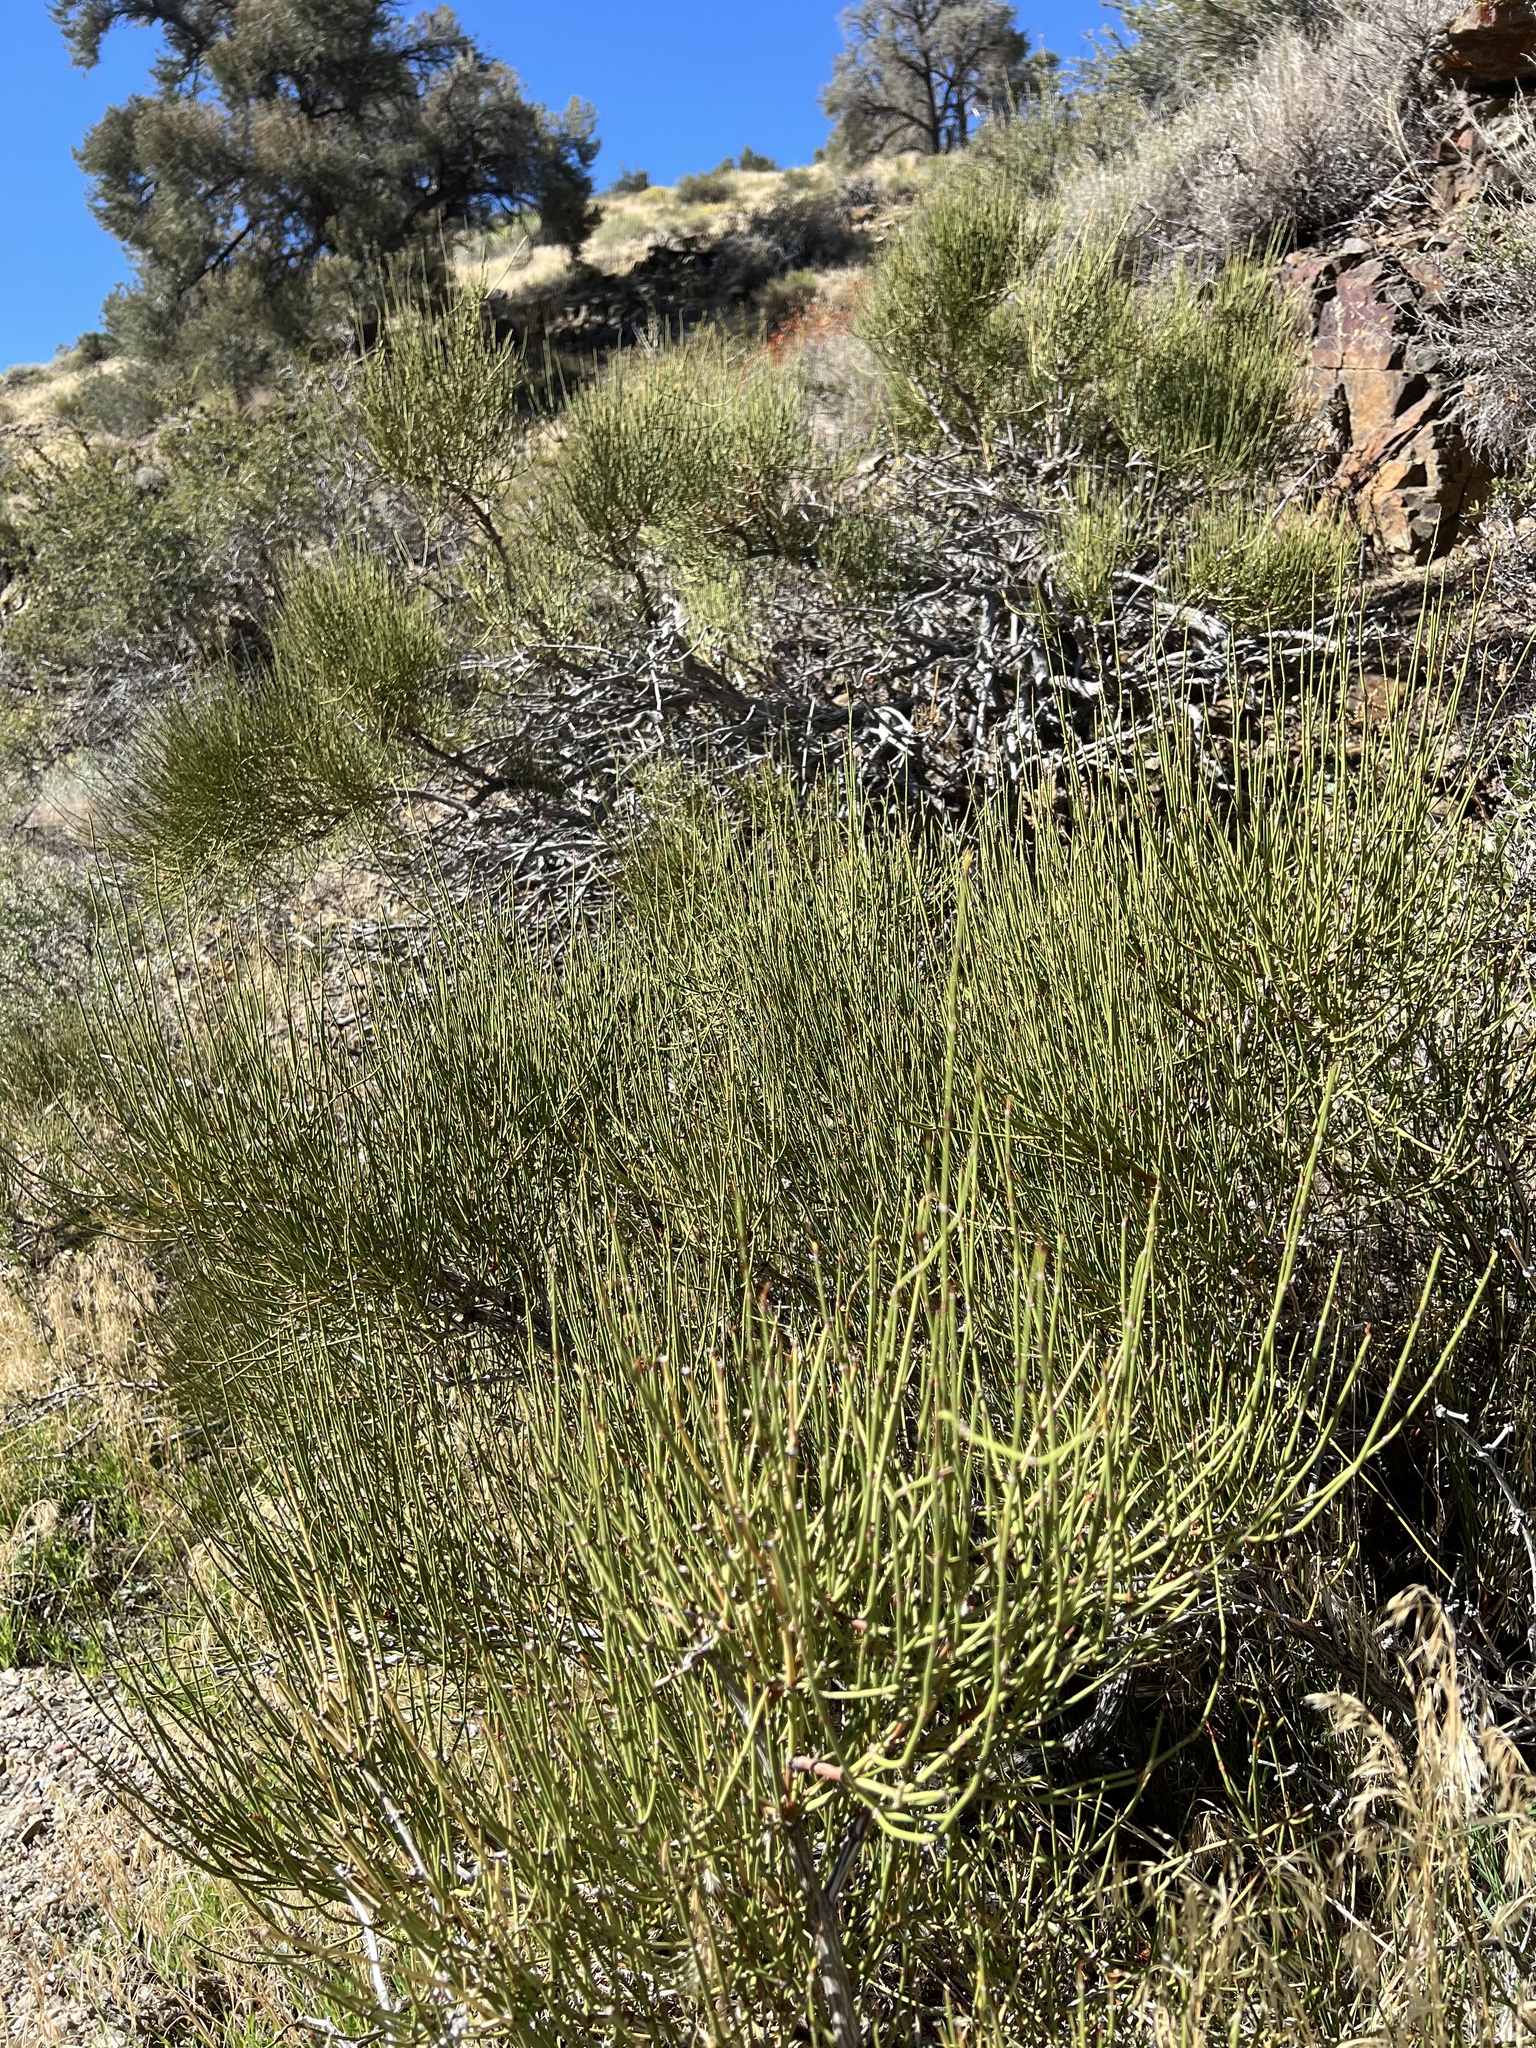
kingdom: Plantae
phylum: Tracheophyta
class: Gnetopsida
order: Ephedrales
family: Ephedraceae
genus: Ephedra
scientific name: Ephedra viridis
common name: Green ephedra
